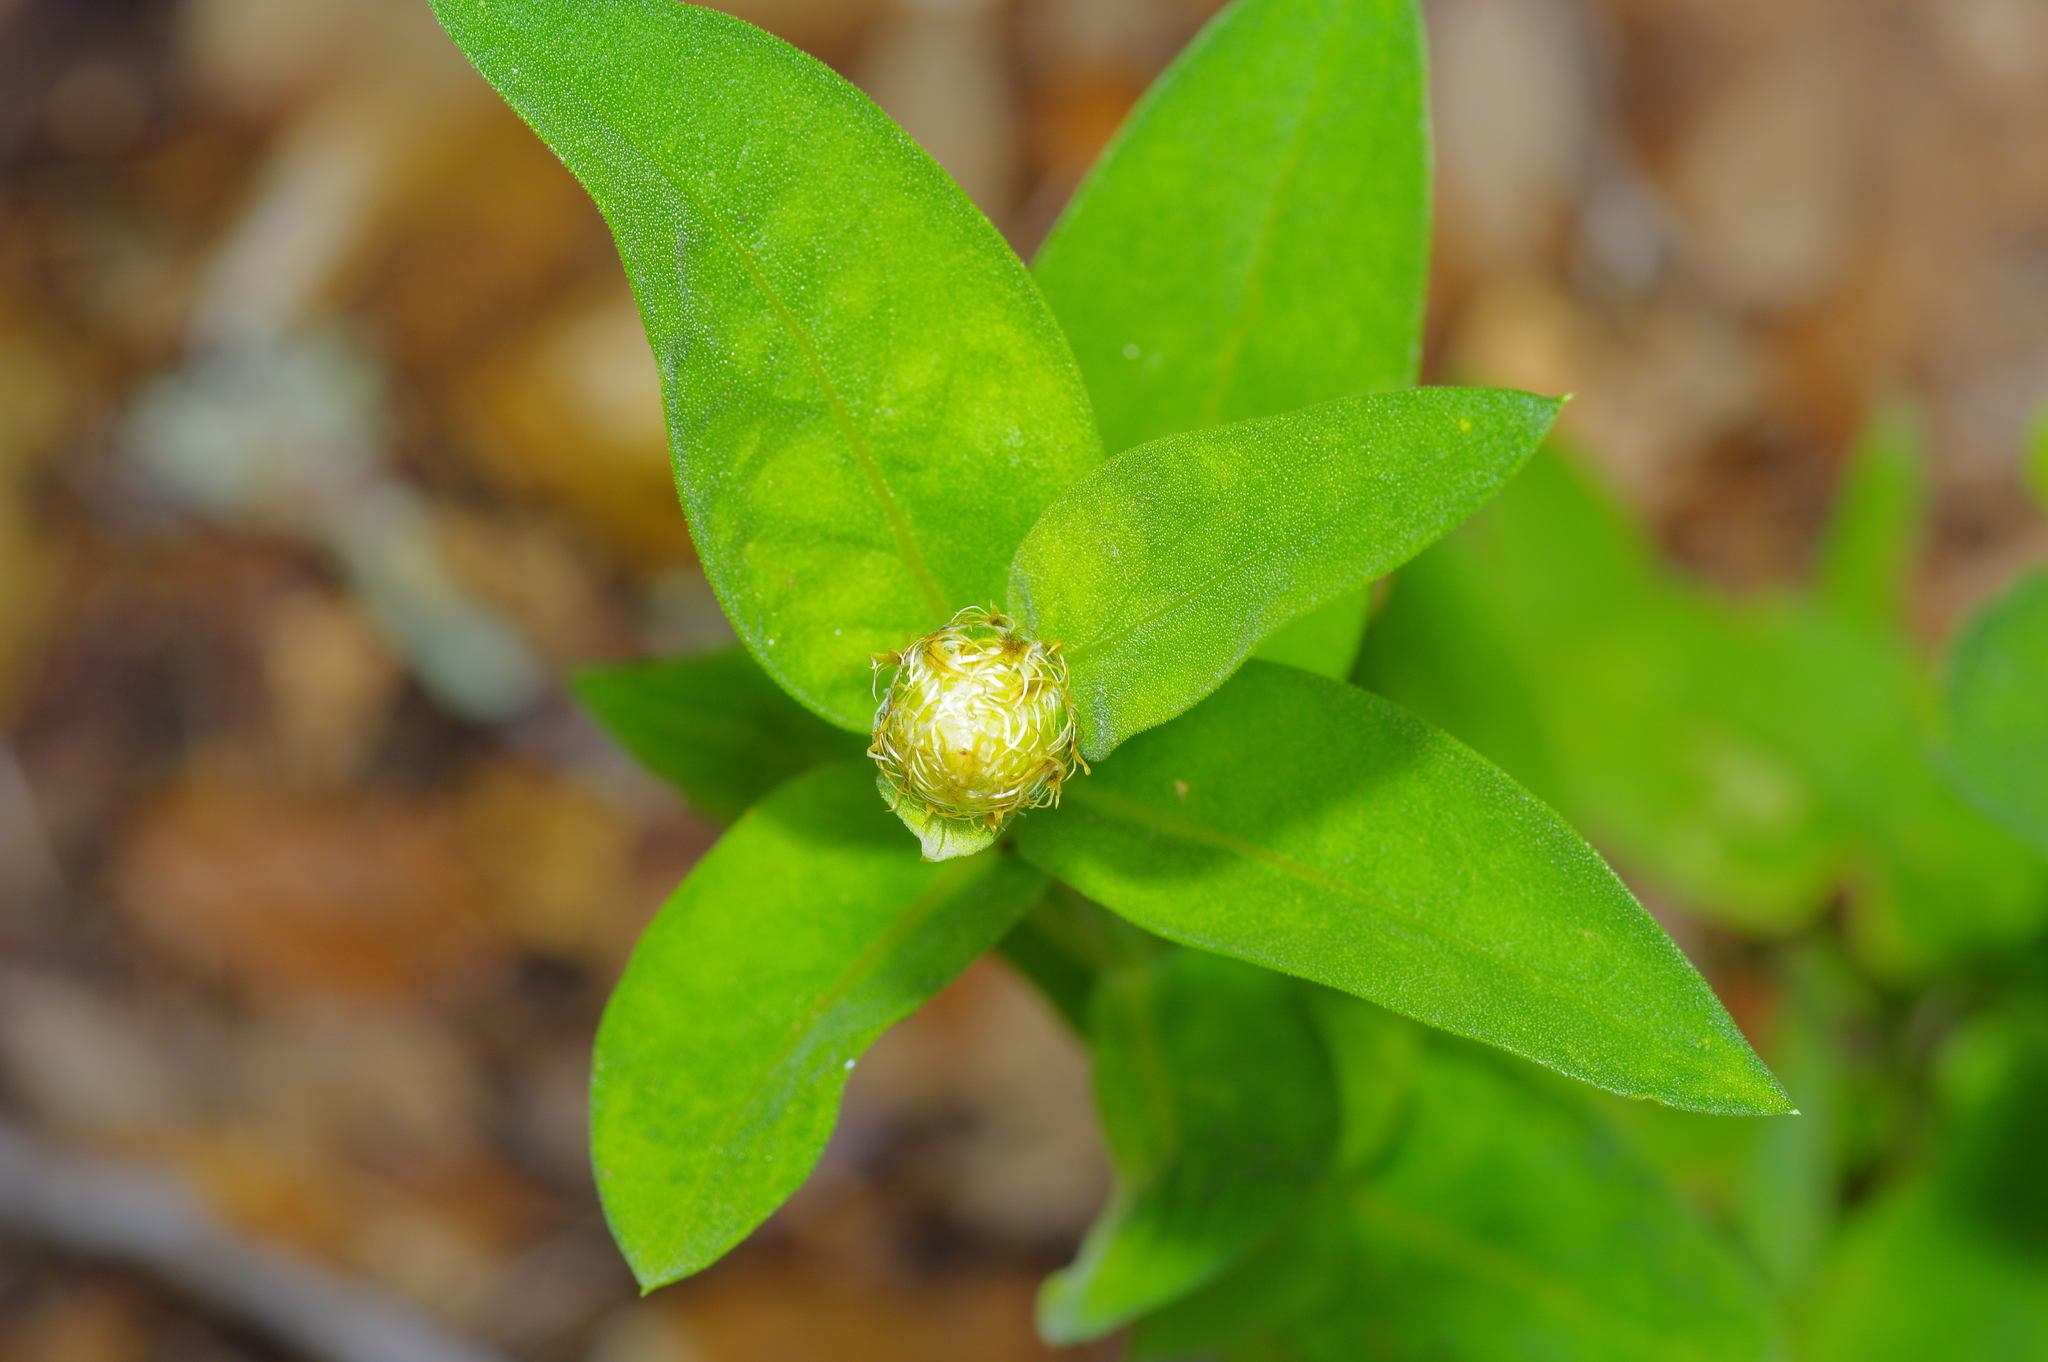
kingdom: Plantae
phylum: Tracheophyta
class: Magnoliopsida
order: Asterales
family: Asteraceae
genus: Plectocephalus
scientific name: Plectocephalus americanus
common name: American basket-flower
